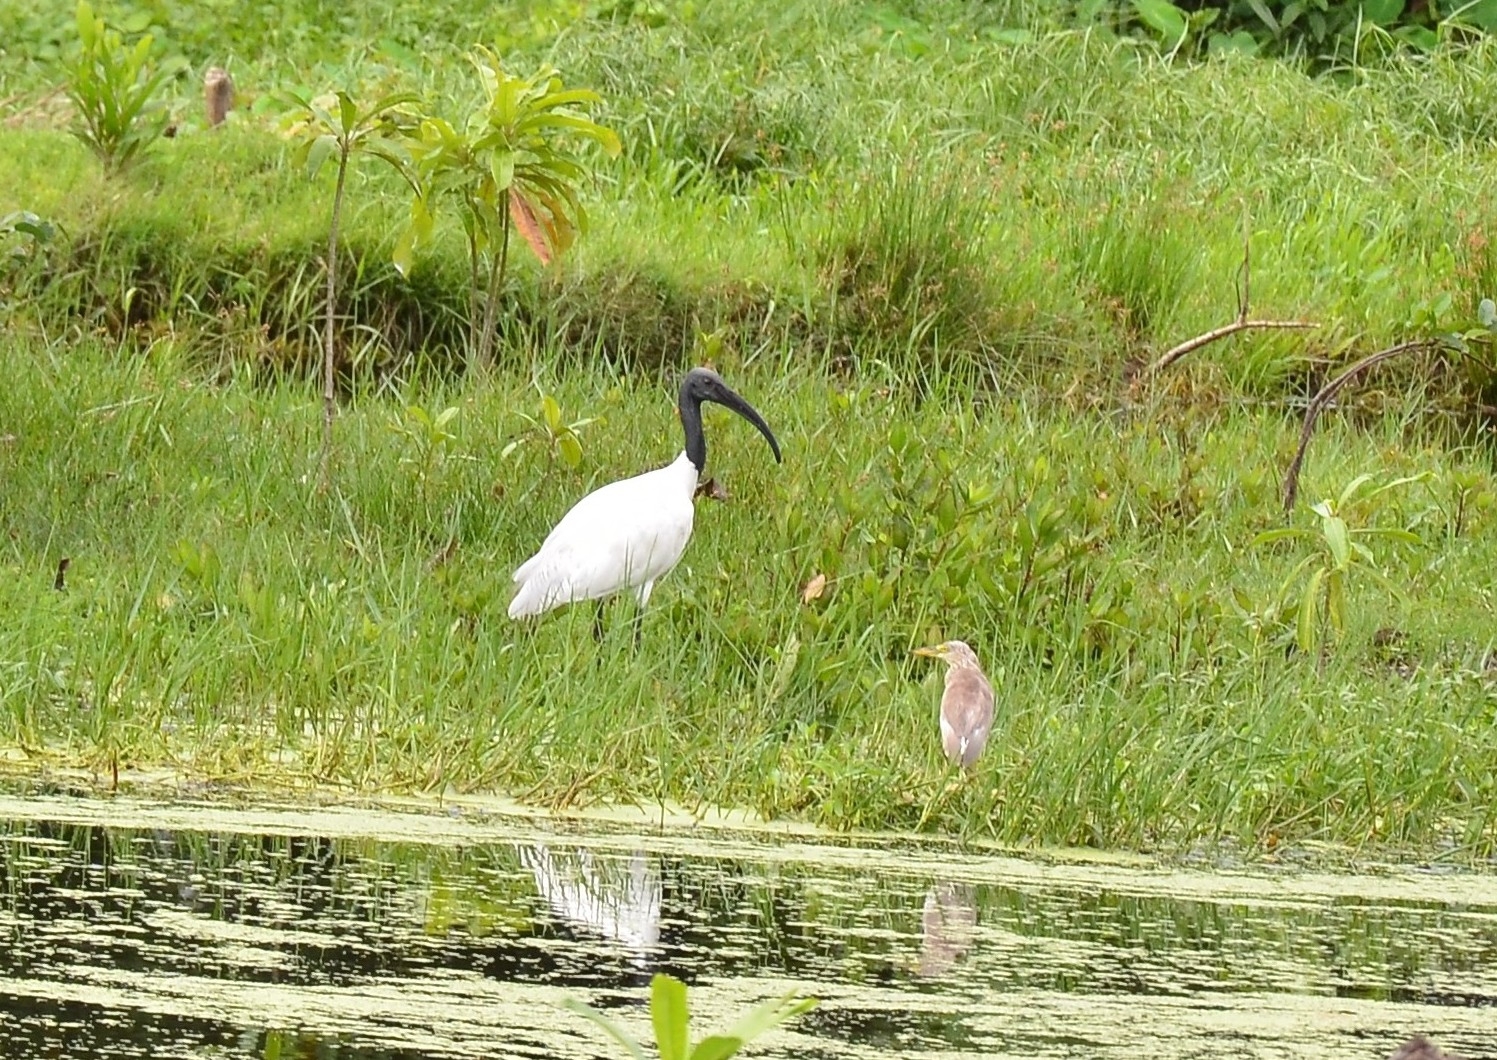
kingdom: Animalia
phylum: Chordata
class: Aves
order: Pelecaniformes
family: Threskiornithidae
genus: Threskiornis
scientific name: Threskiornis melanocephalus
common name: Black-headed ibis
